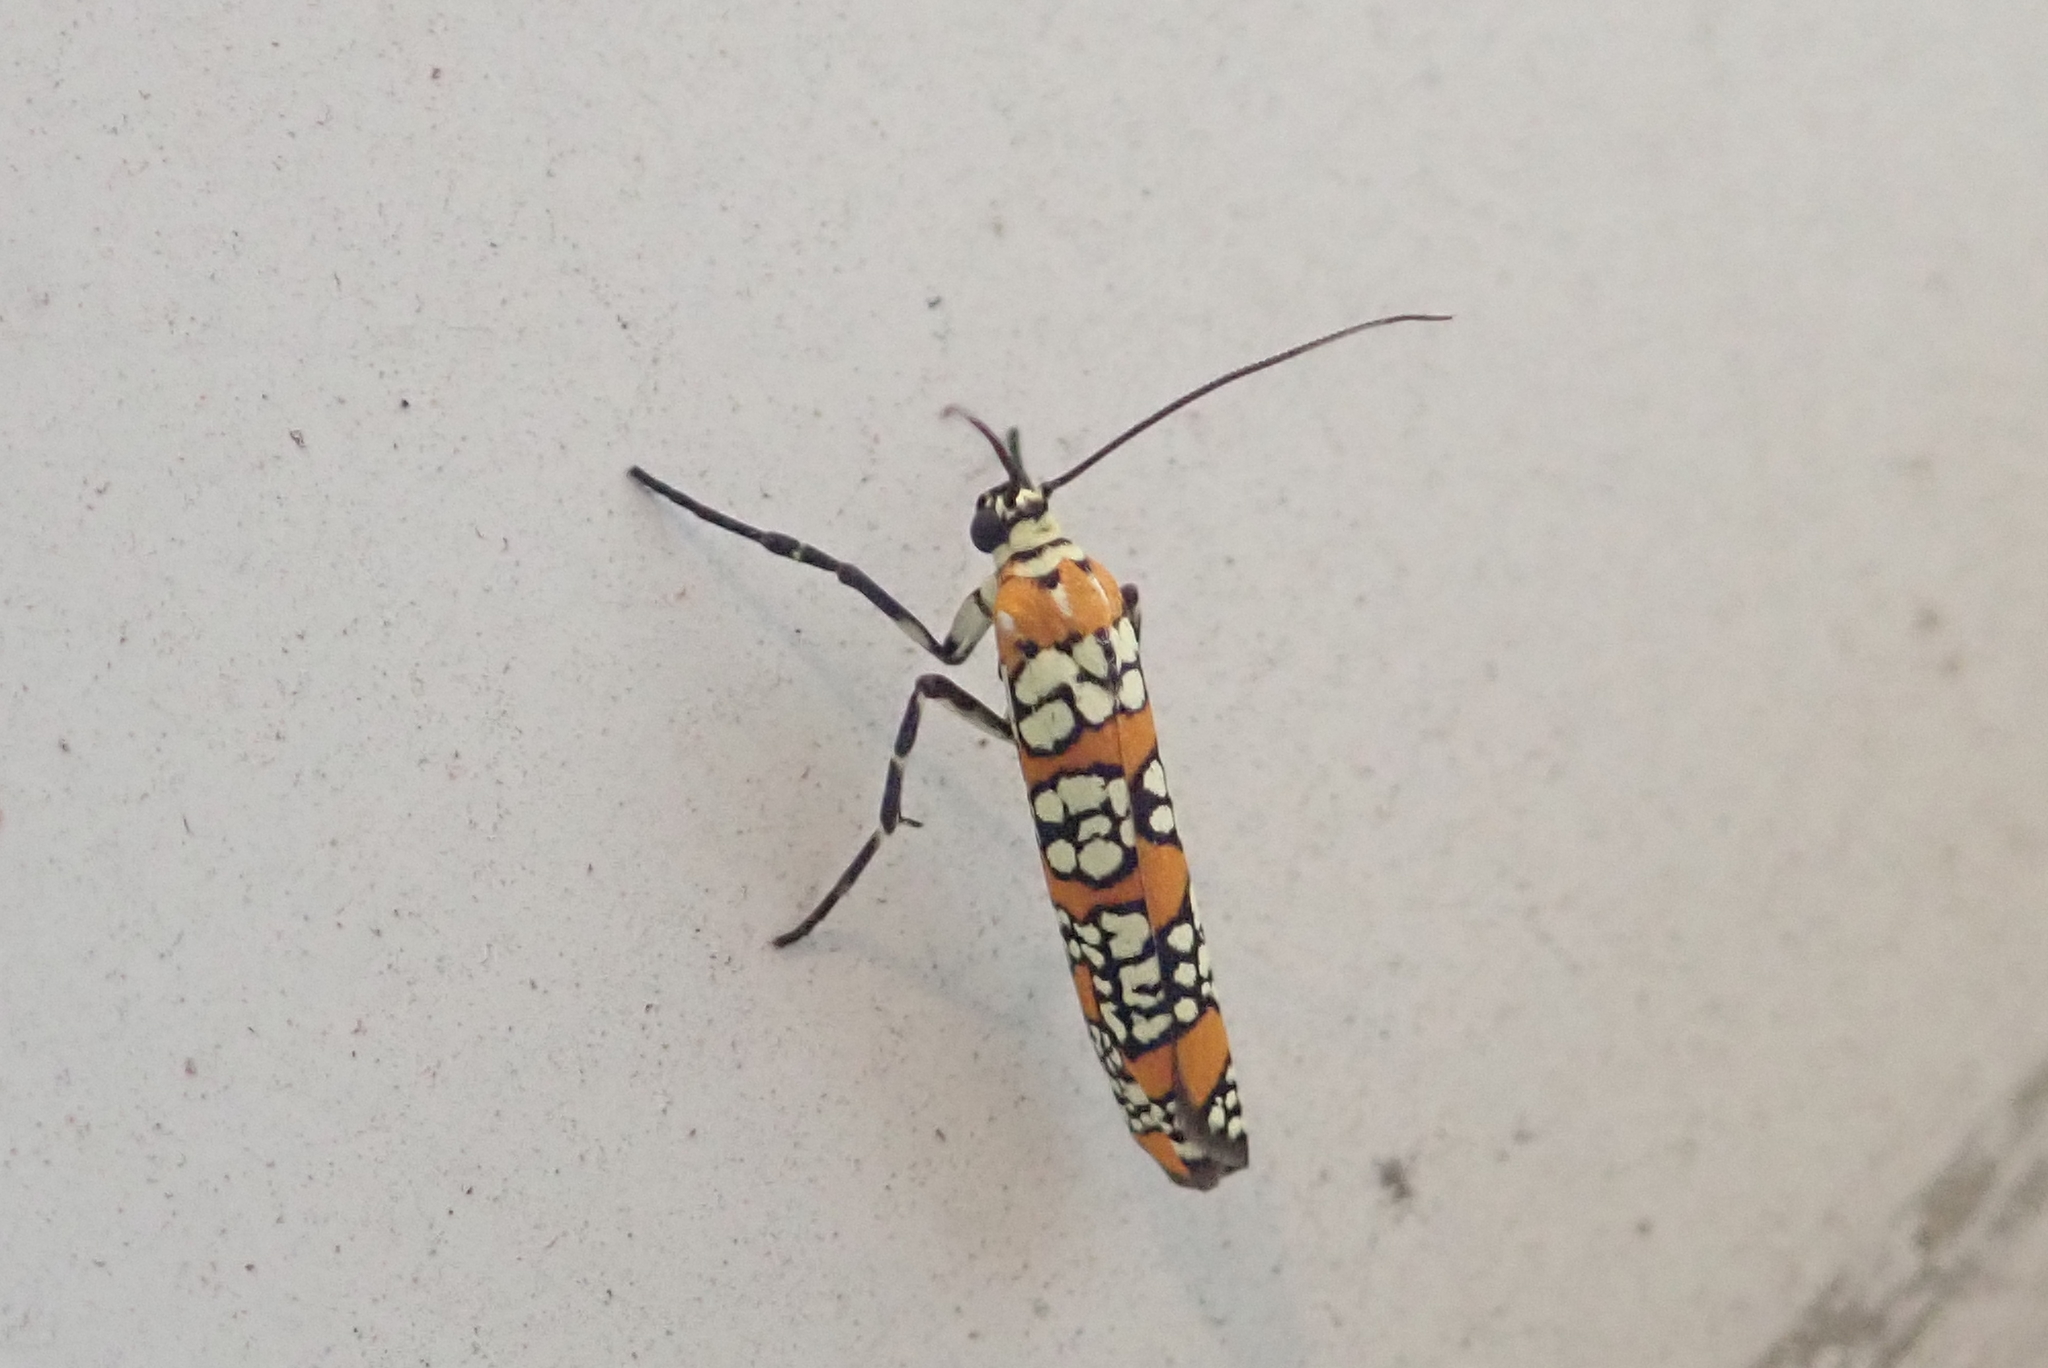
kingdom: Animalia
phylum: Arthropoda
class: Insecta
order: Lepidoptera
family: Attevidae
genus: Atteva
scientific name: Atteva punctella
